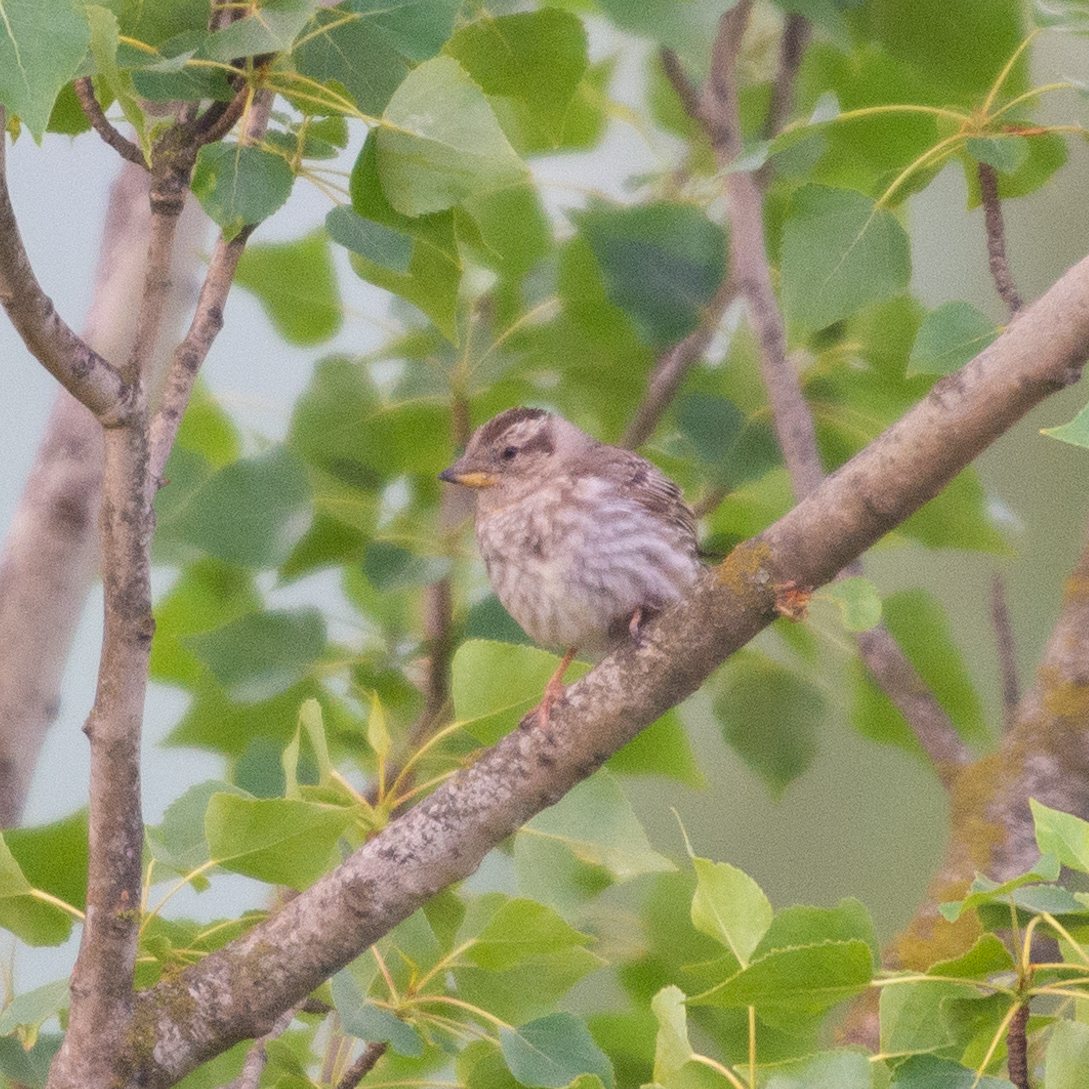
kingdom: Animalia
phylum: Chordata
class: Aves
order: Passeriformes
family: Passeridae
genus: Petronia
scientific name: Petronia petronia
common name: Rock sparrow
